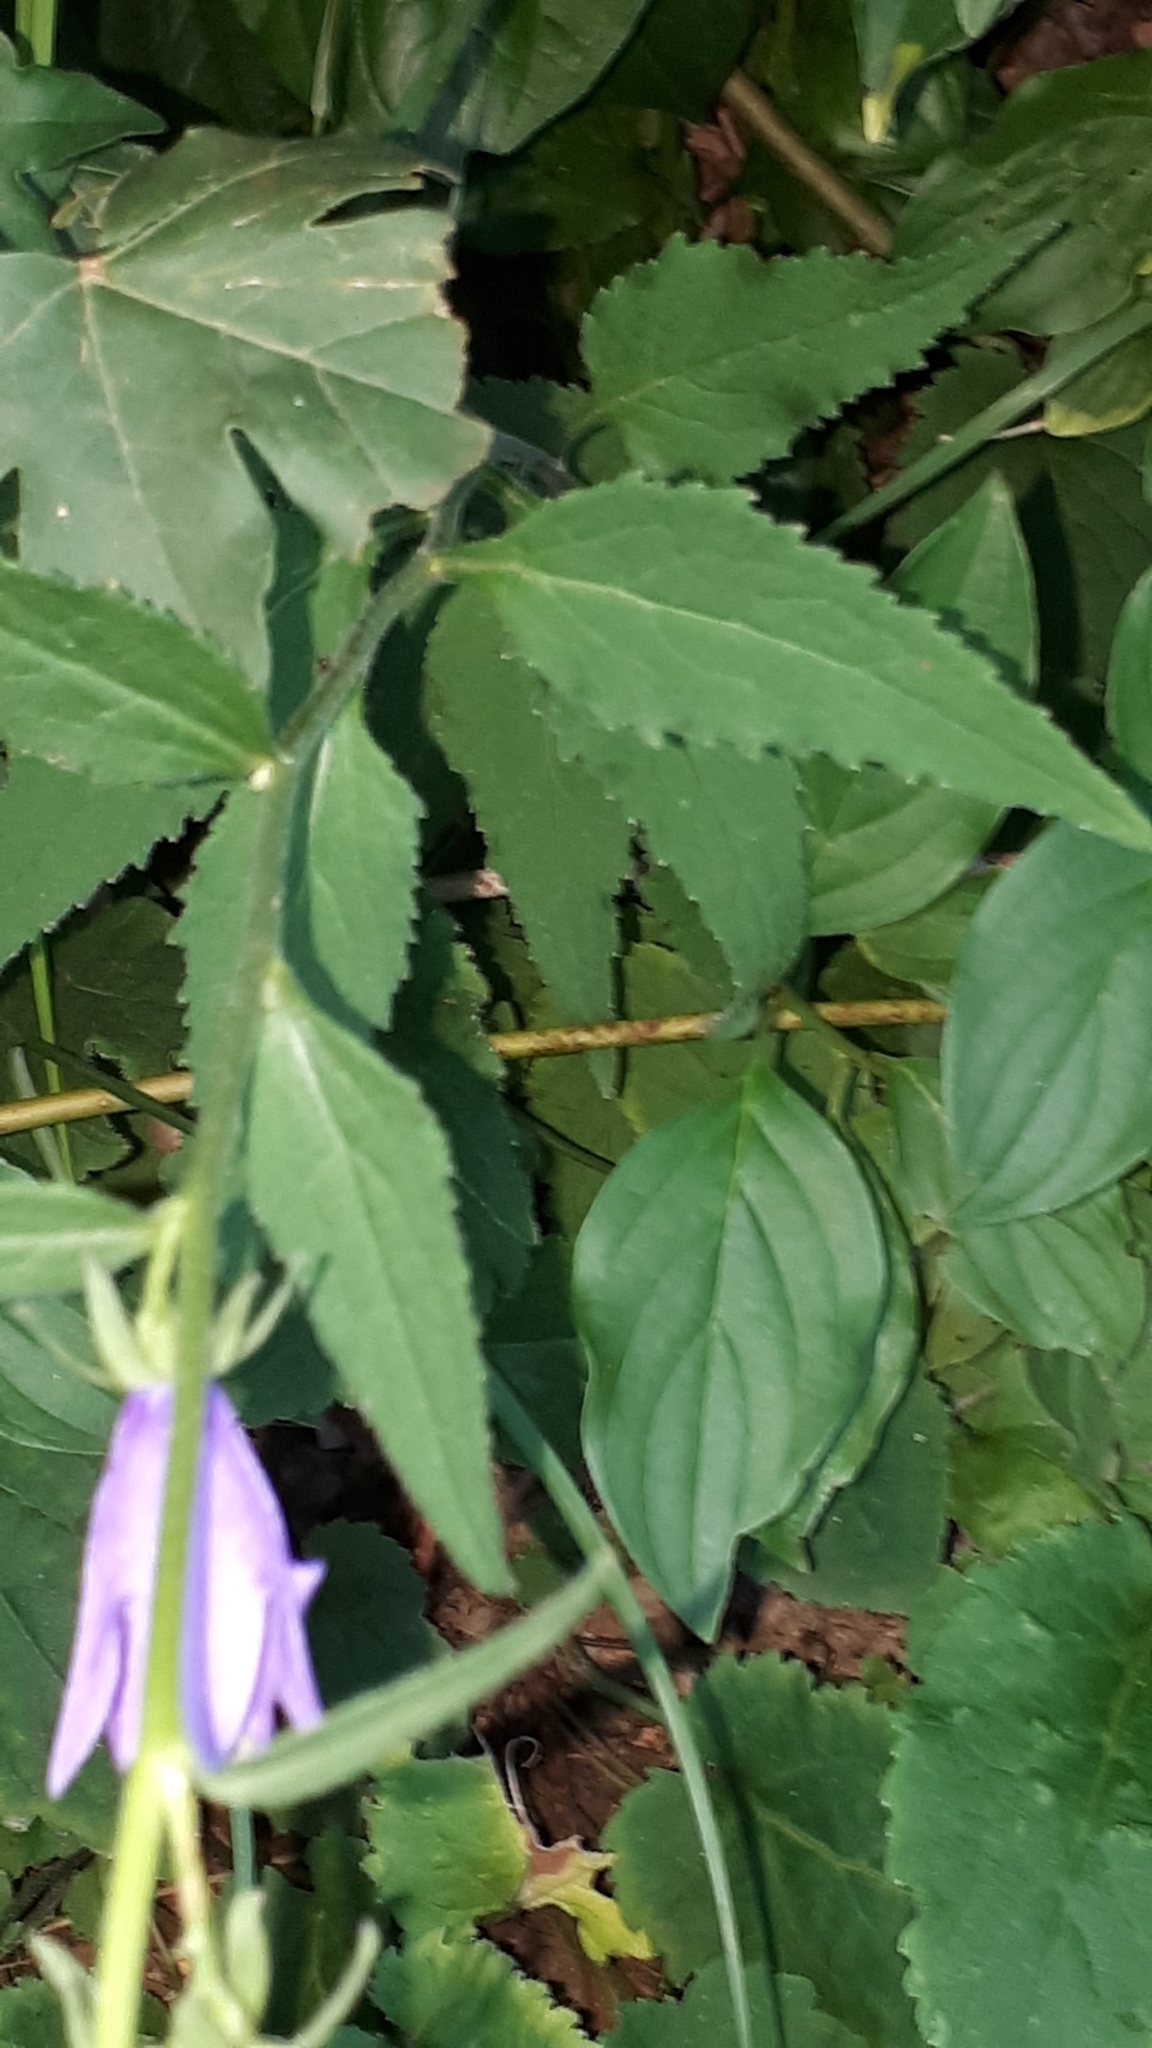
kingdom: Plantae
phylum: Tracheophyta
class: Magnoliopsida
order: Asterales
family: Campanulaceae
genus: Campanula
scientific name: Campanula rapunculoides
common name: Creeping bellflower
